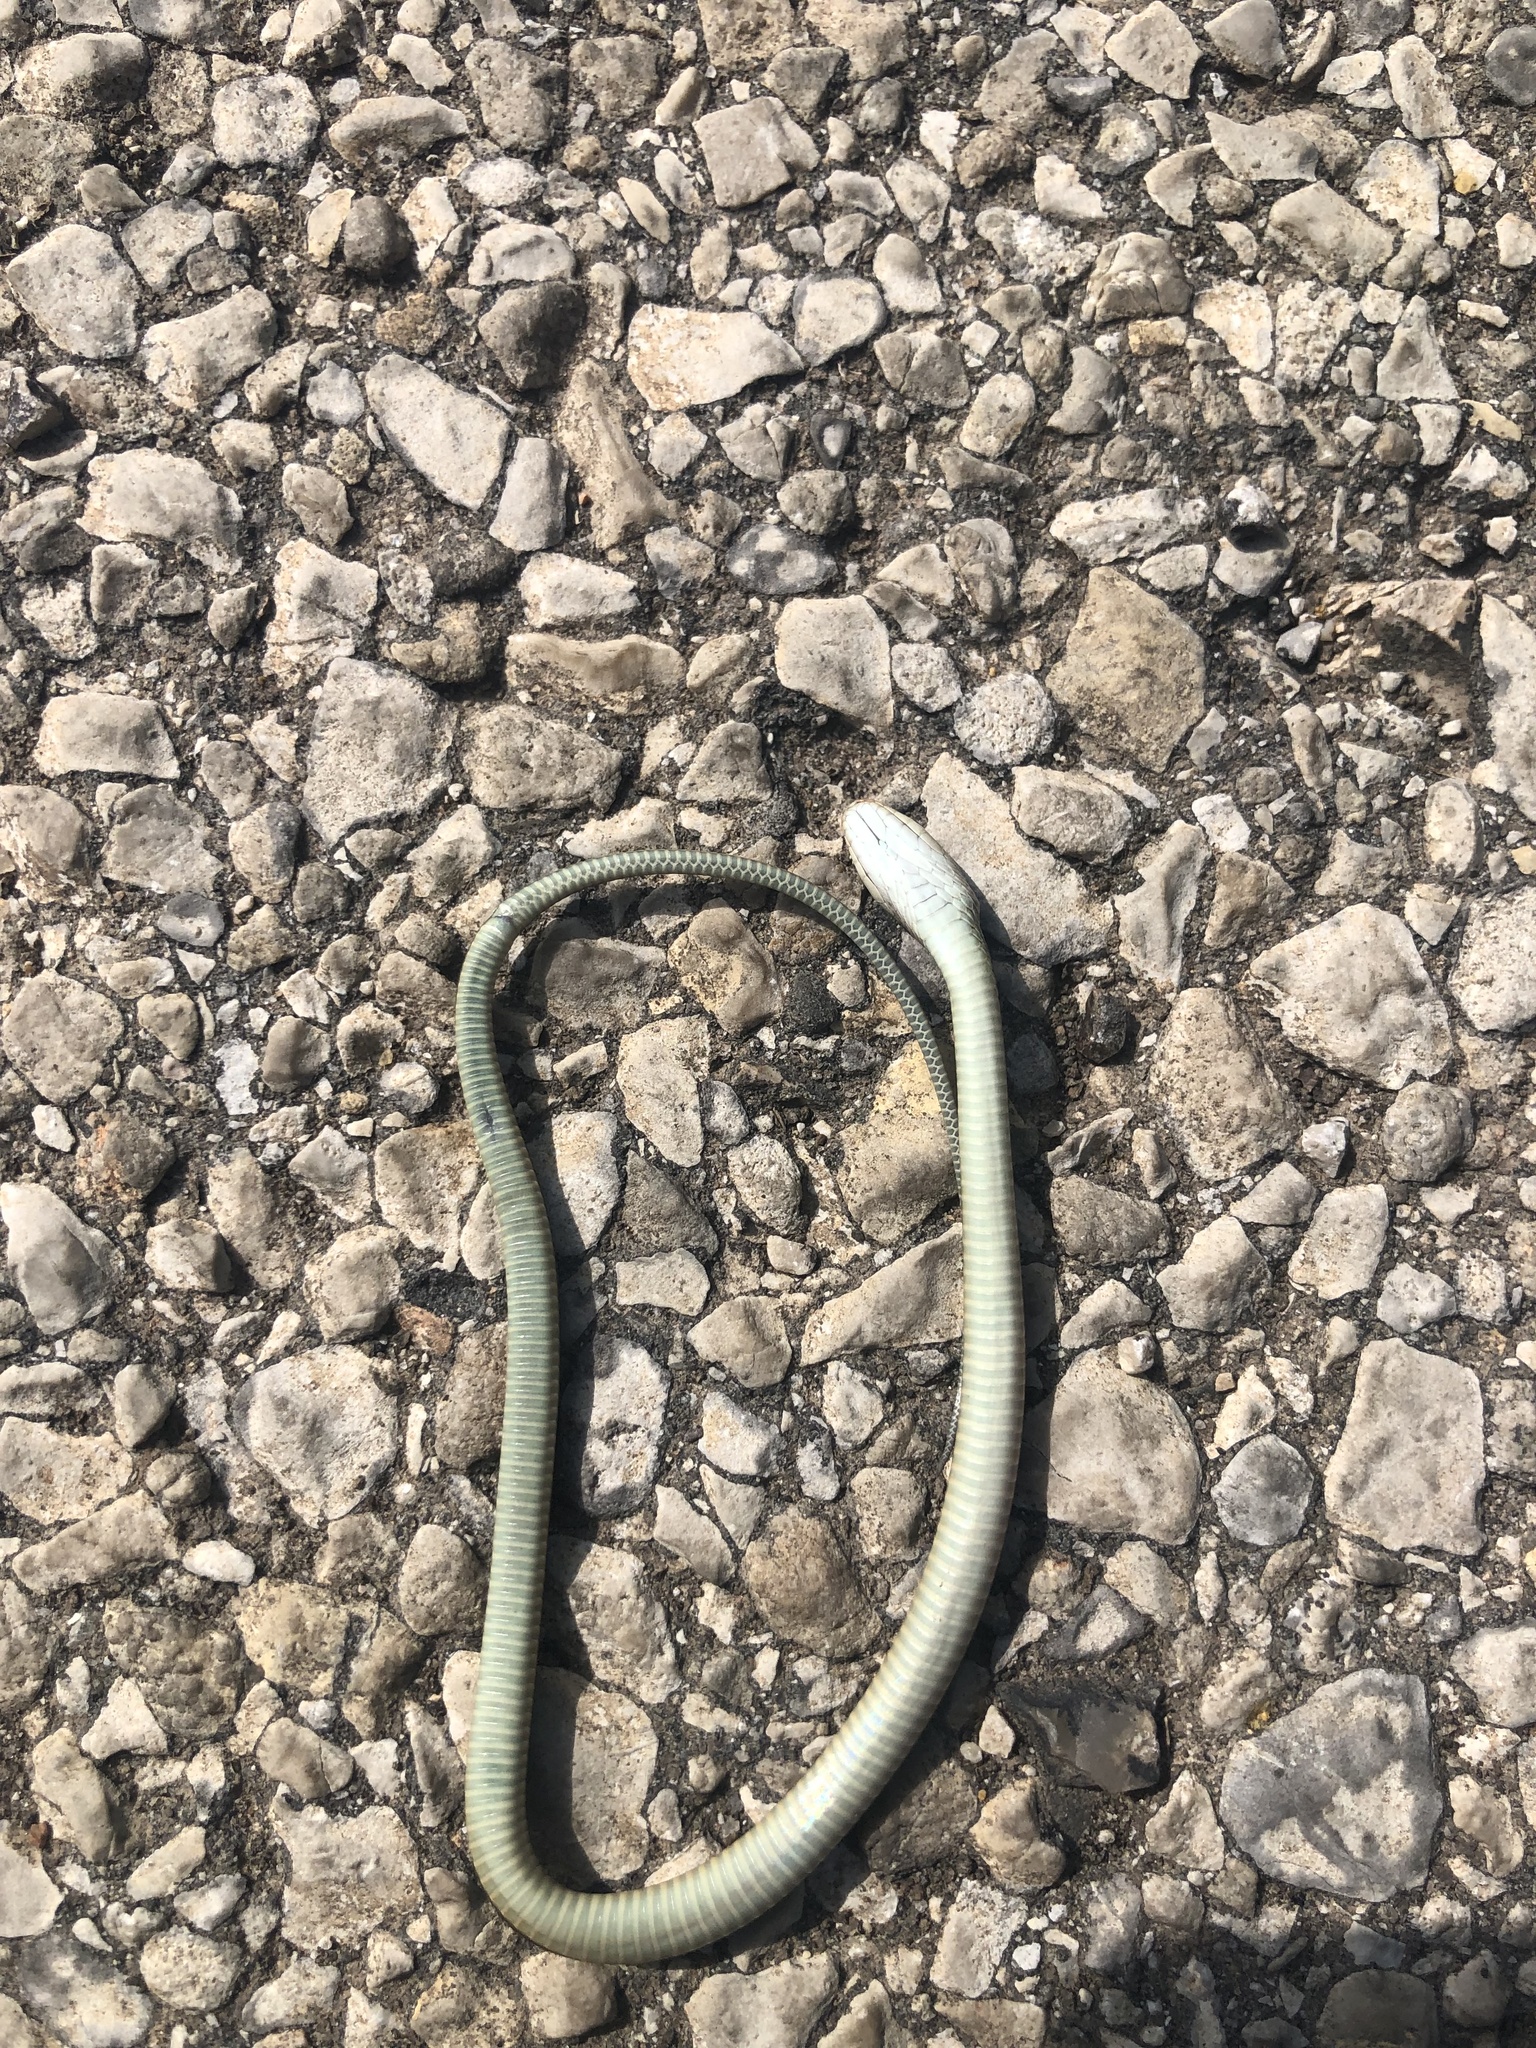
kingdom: Animalia
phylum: Chordata
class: Squamata
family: Colubridae
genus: Thamnophis
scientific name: Thamnophis proximus
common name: Western ribbon snake
